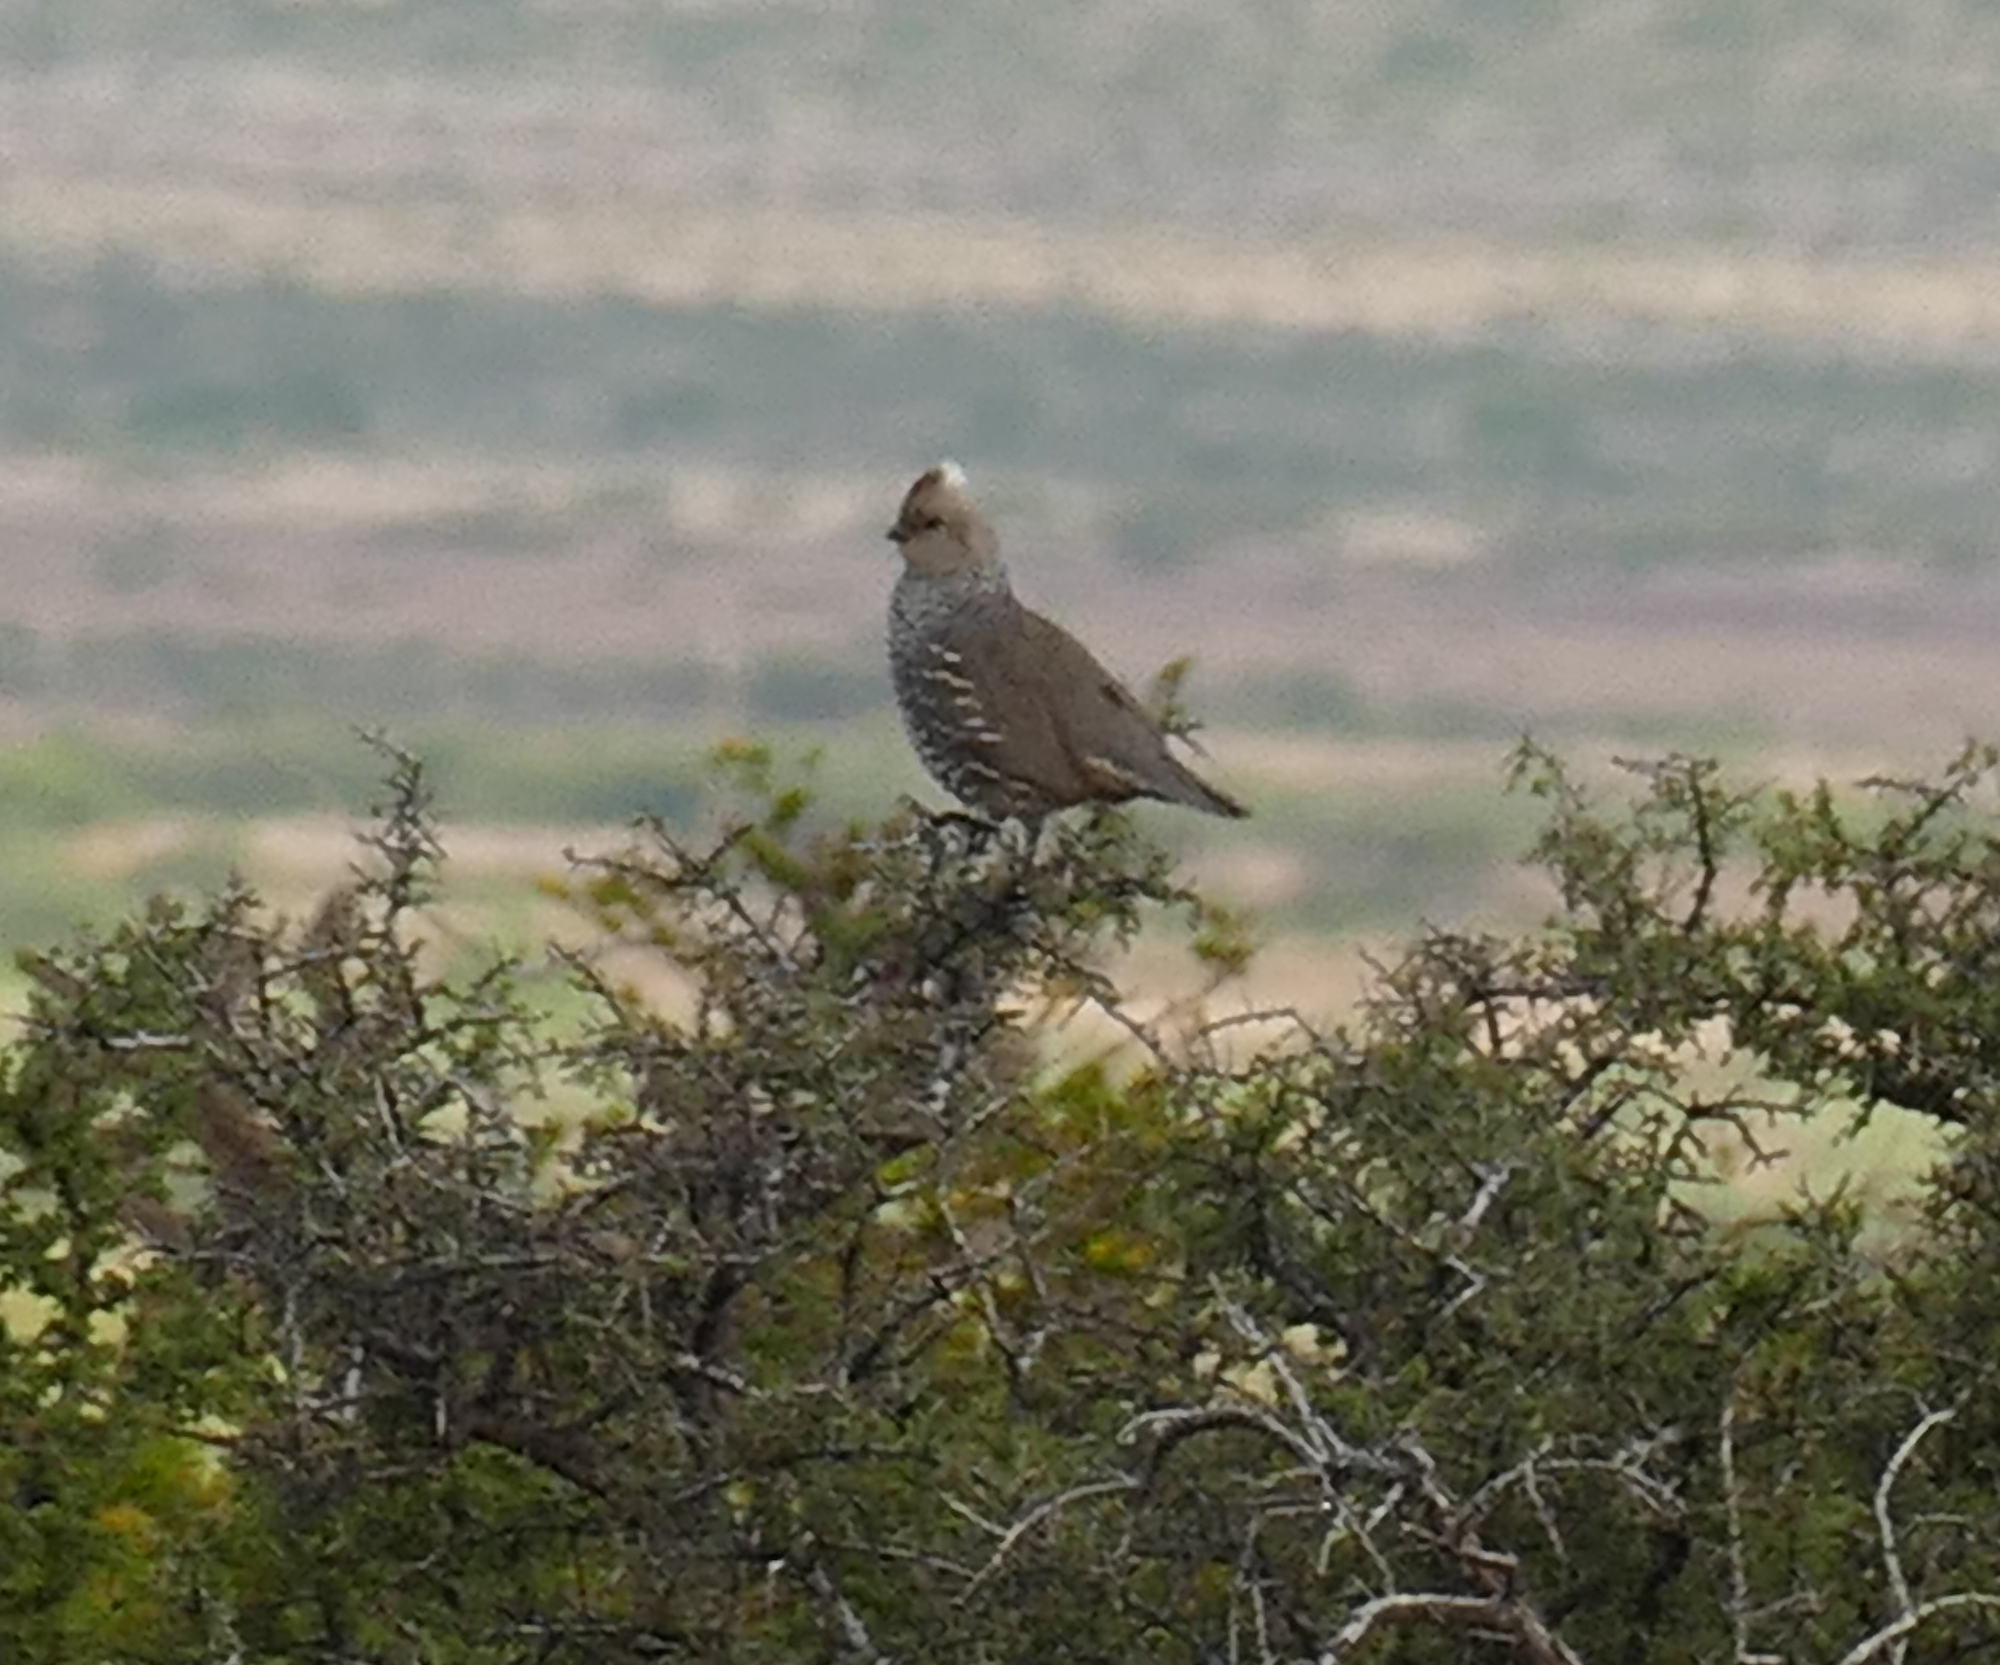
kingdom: Animalia
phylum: Chordata
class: Aves
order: Galliformes
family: Odontophoridae
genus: Callipepla
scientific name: Callipepla squamata
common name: Scaled quail
